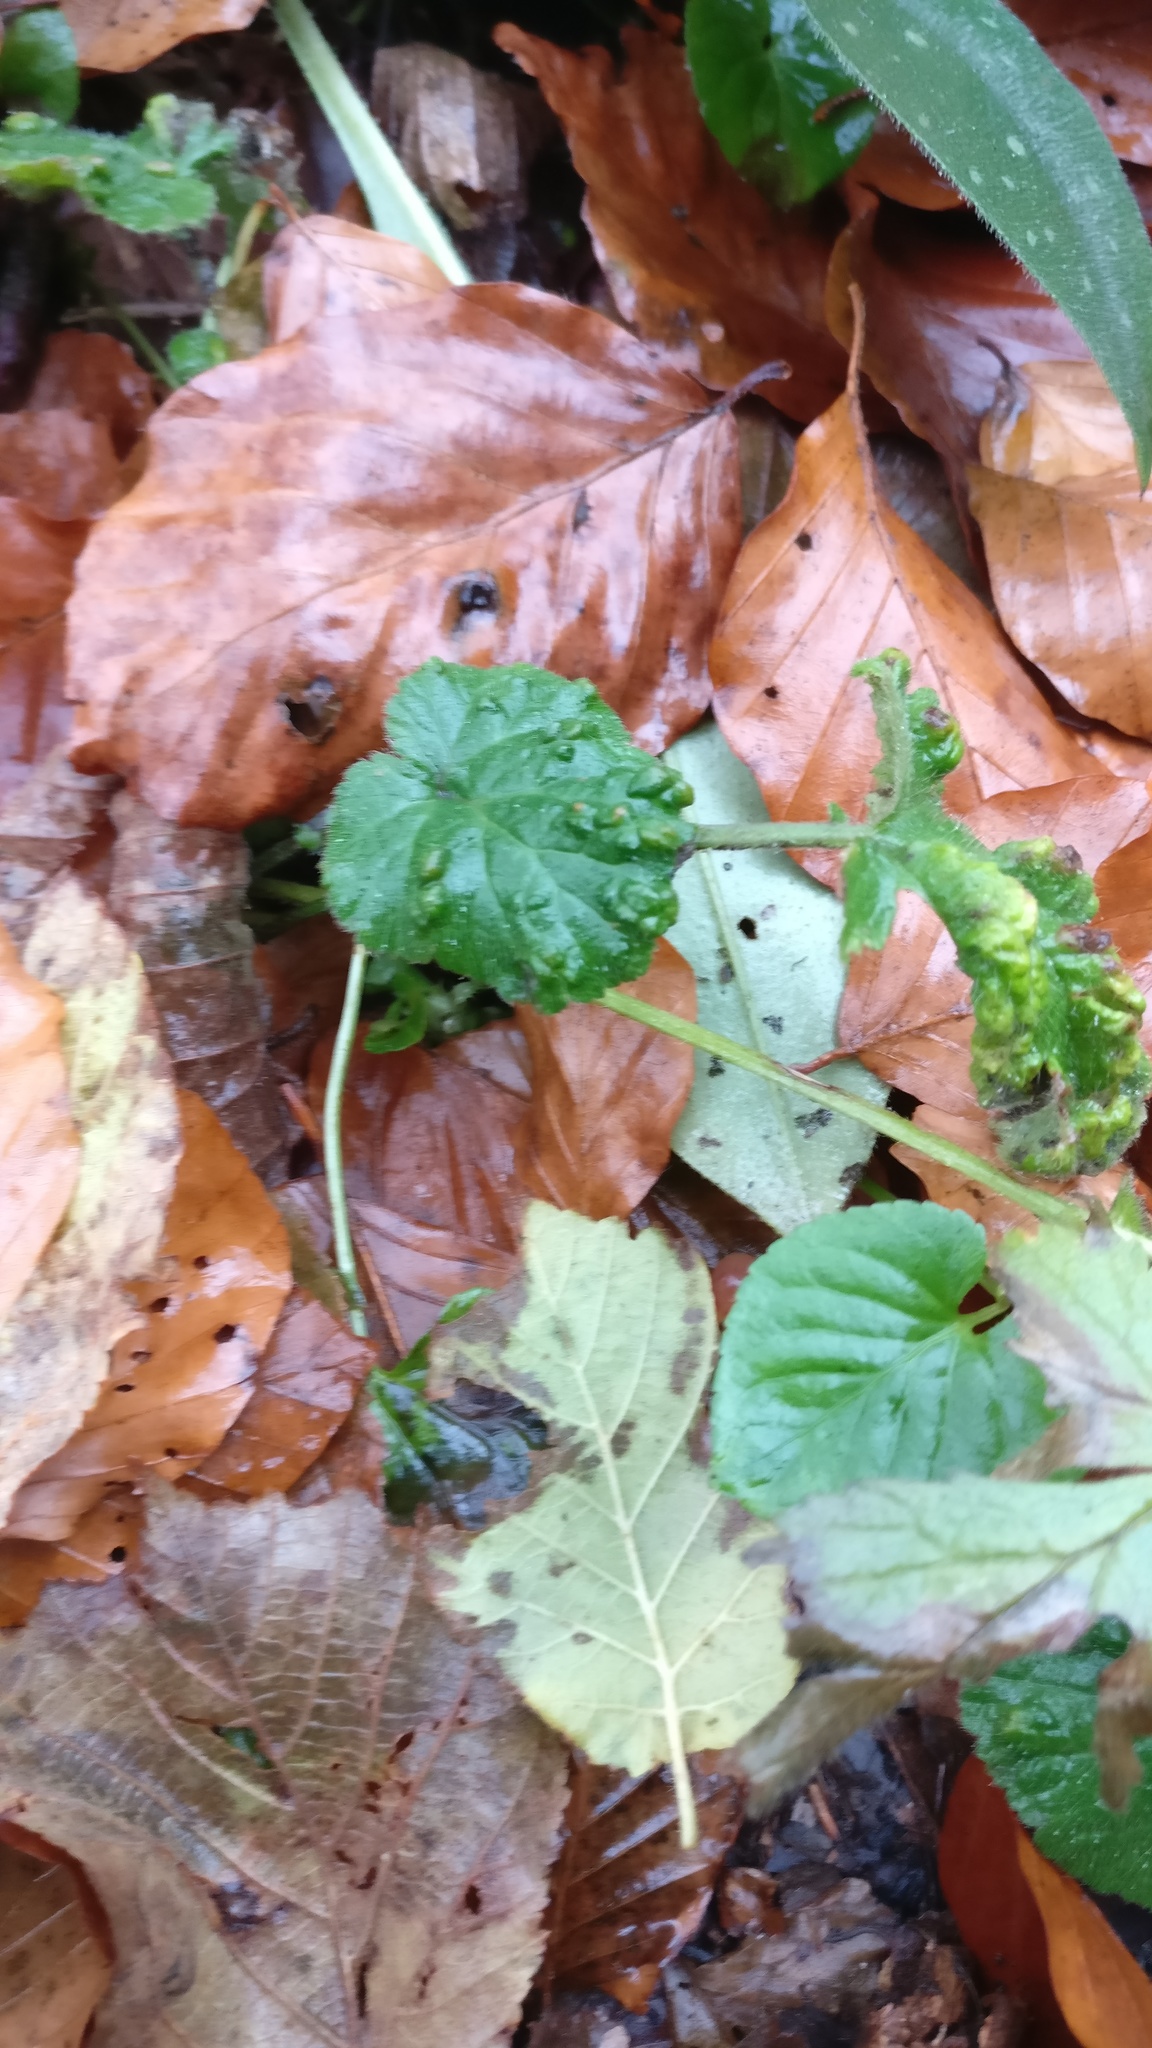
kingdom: Animalia
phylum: Arthropoda
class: Arachnida
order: Trombidiformes
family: Eriophyidae
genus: Cecidophyes
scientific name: Cecidophyes nudus
